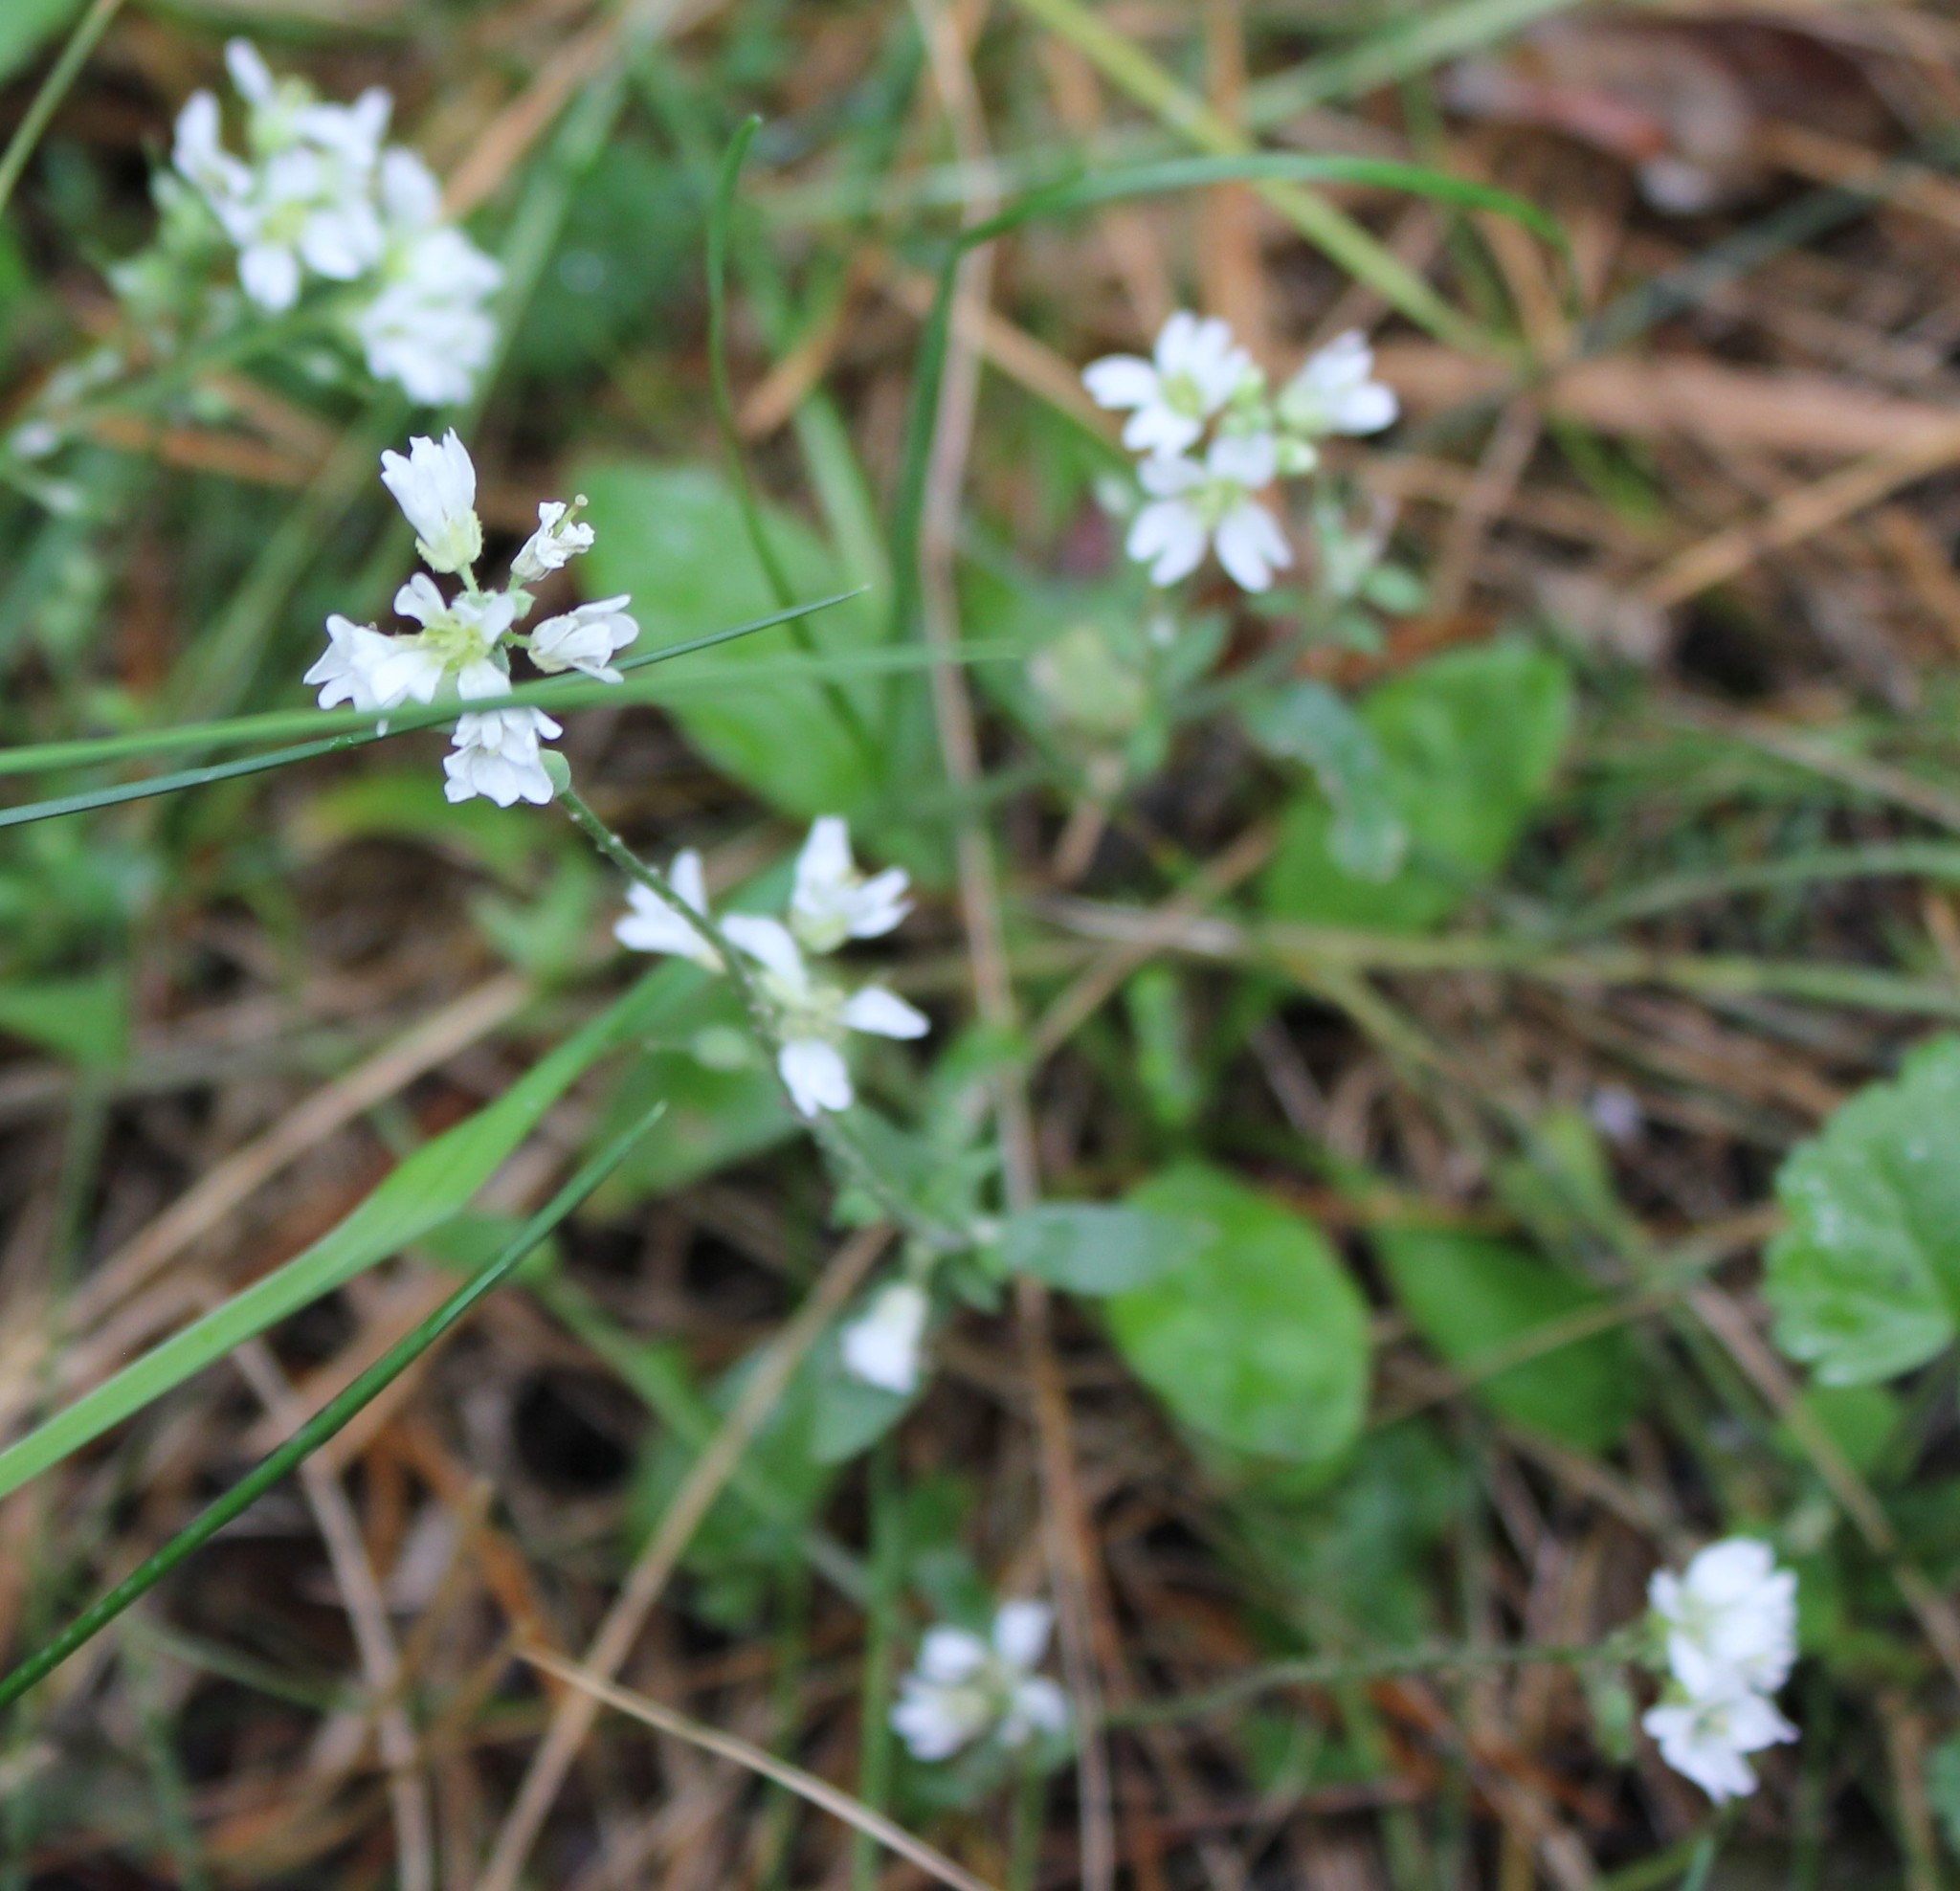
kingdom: Plantae
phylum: Tracheophyta
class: Magnoliopsida
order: Brassicales
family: Brassicaceae
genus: Berteroa
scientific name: Berteroa incana
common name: Hoary alison
